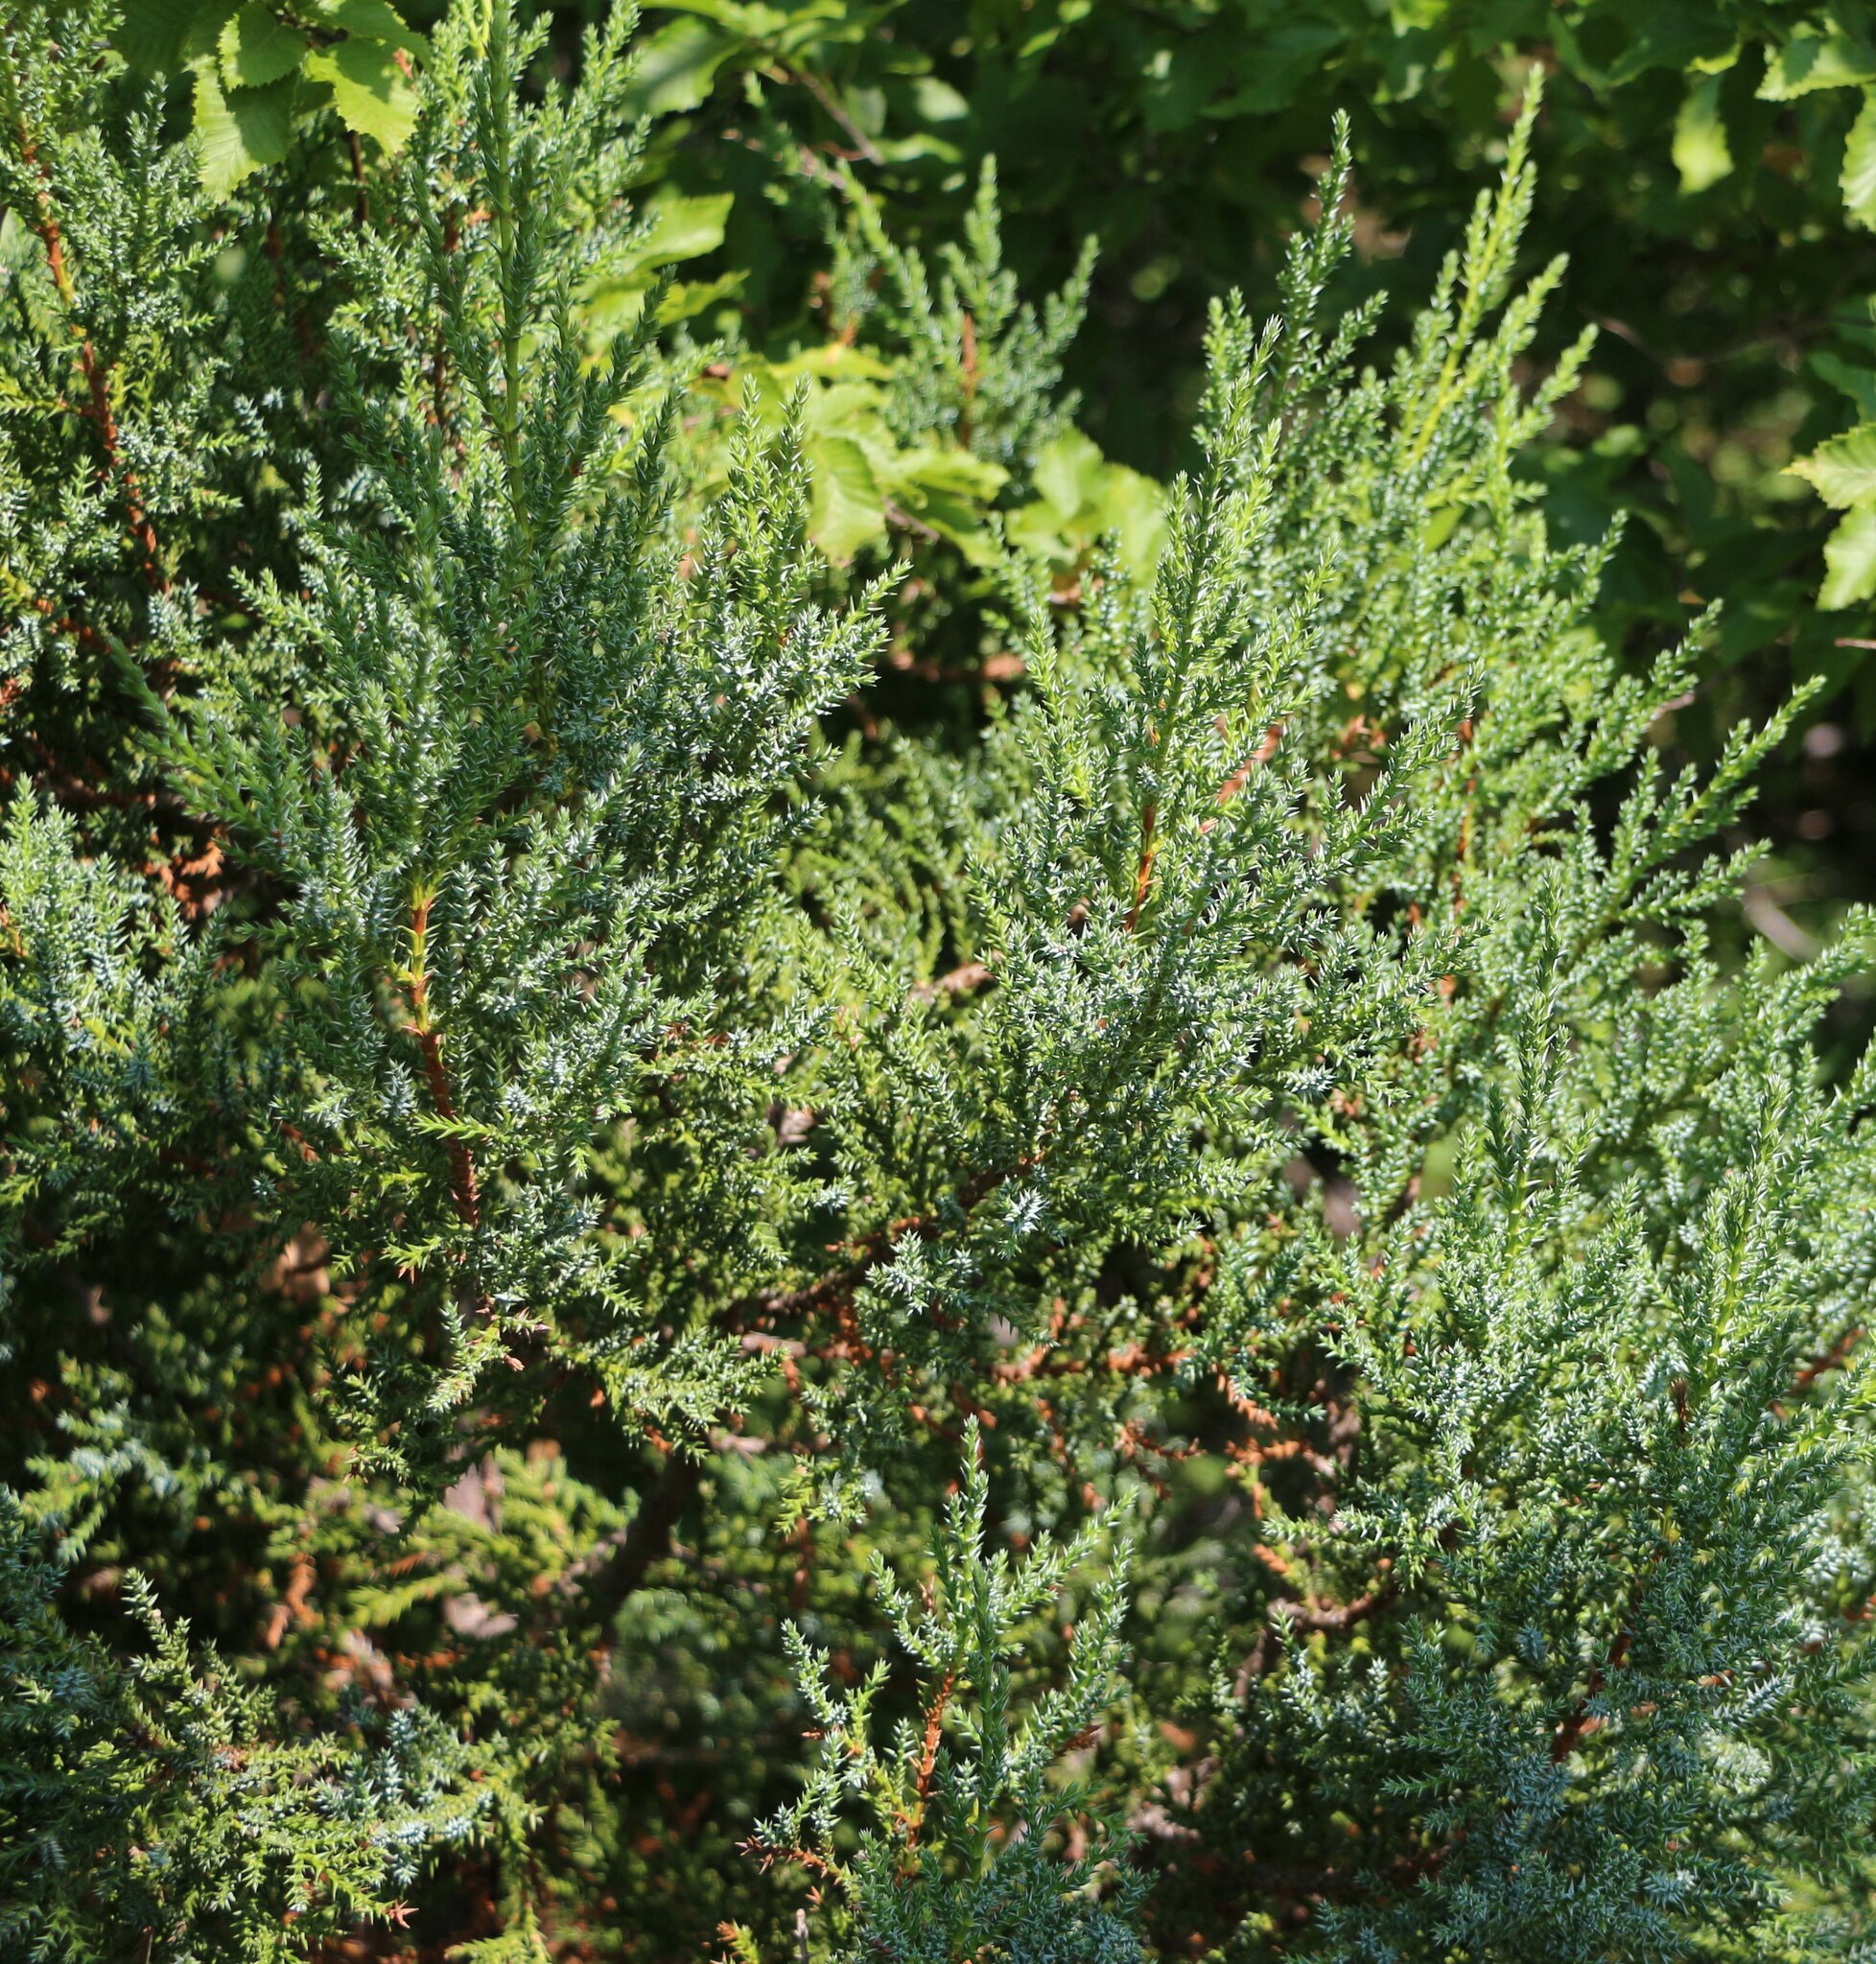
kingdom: Plantae
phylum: Tracheophyta
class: Pinopsida
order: Pinales
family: Cupressaceae
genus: Juniperus
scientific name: Juniperus foetidissima
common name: Stinking juniper
